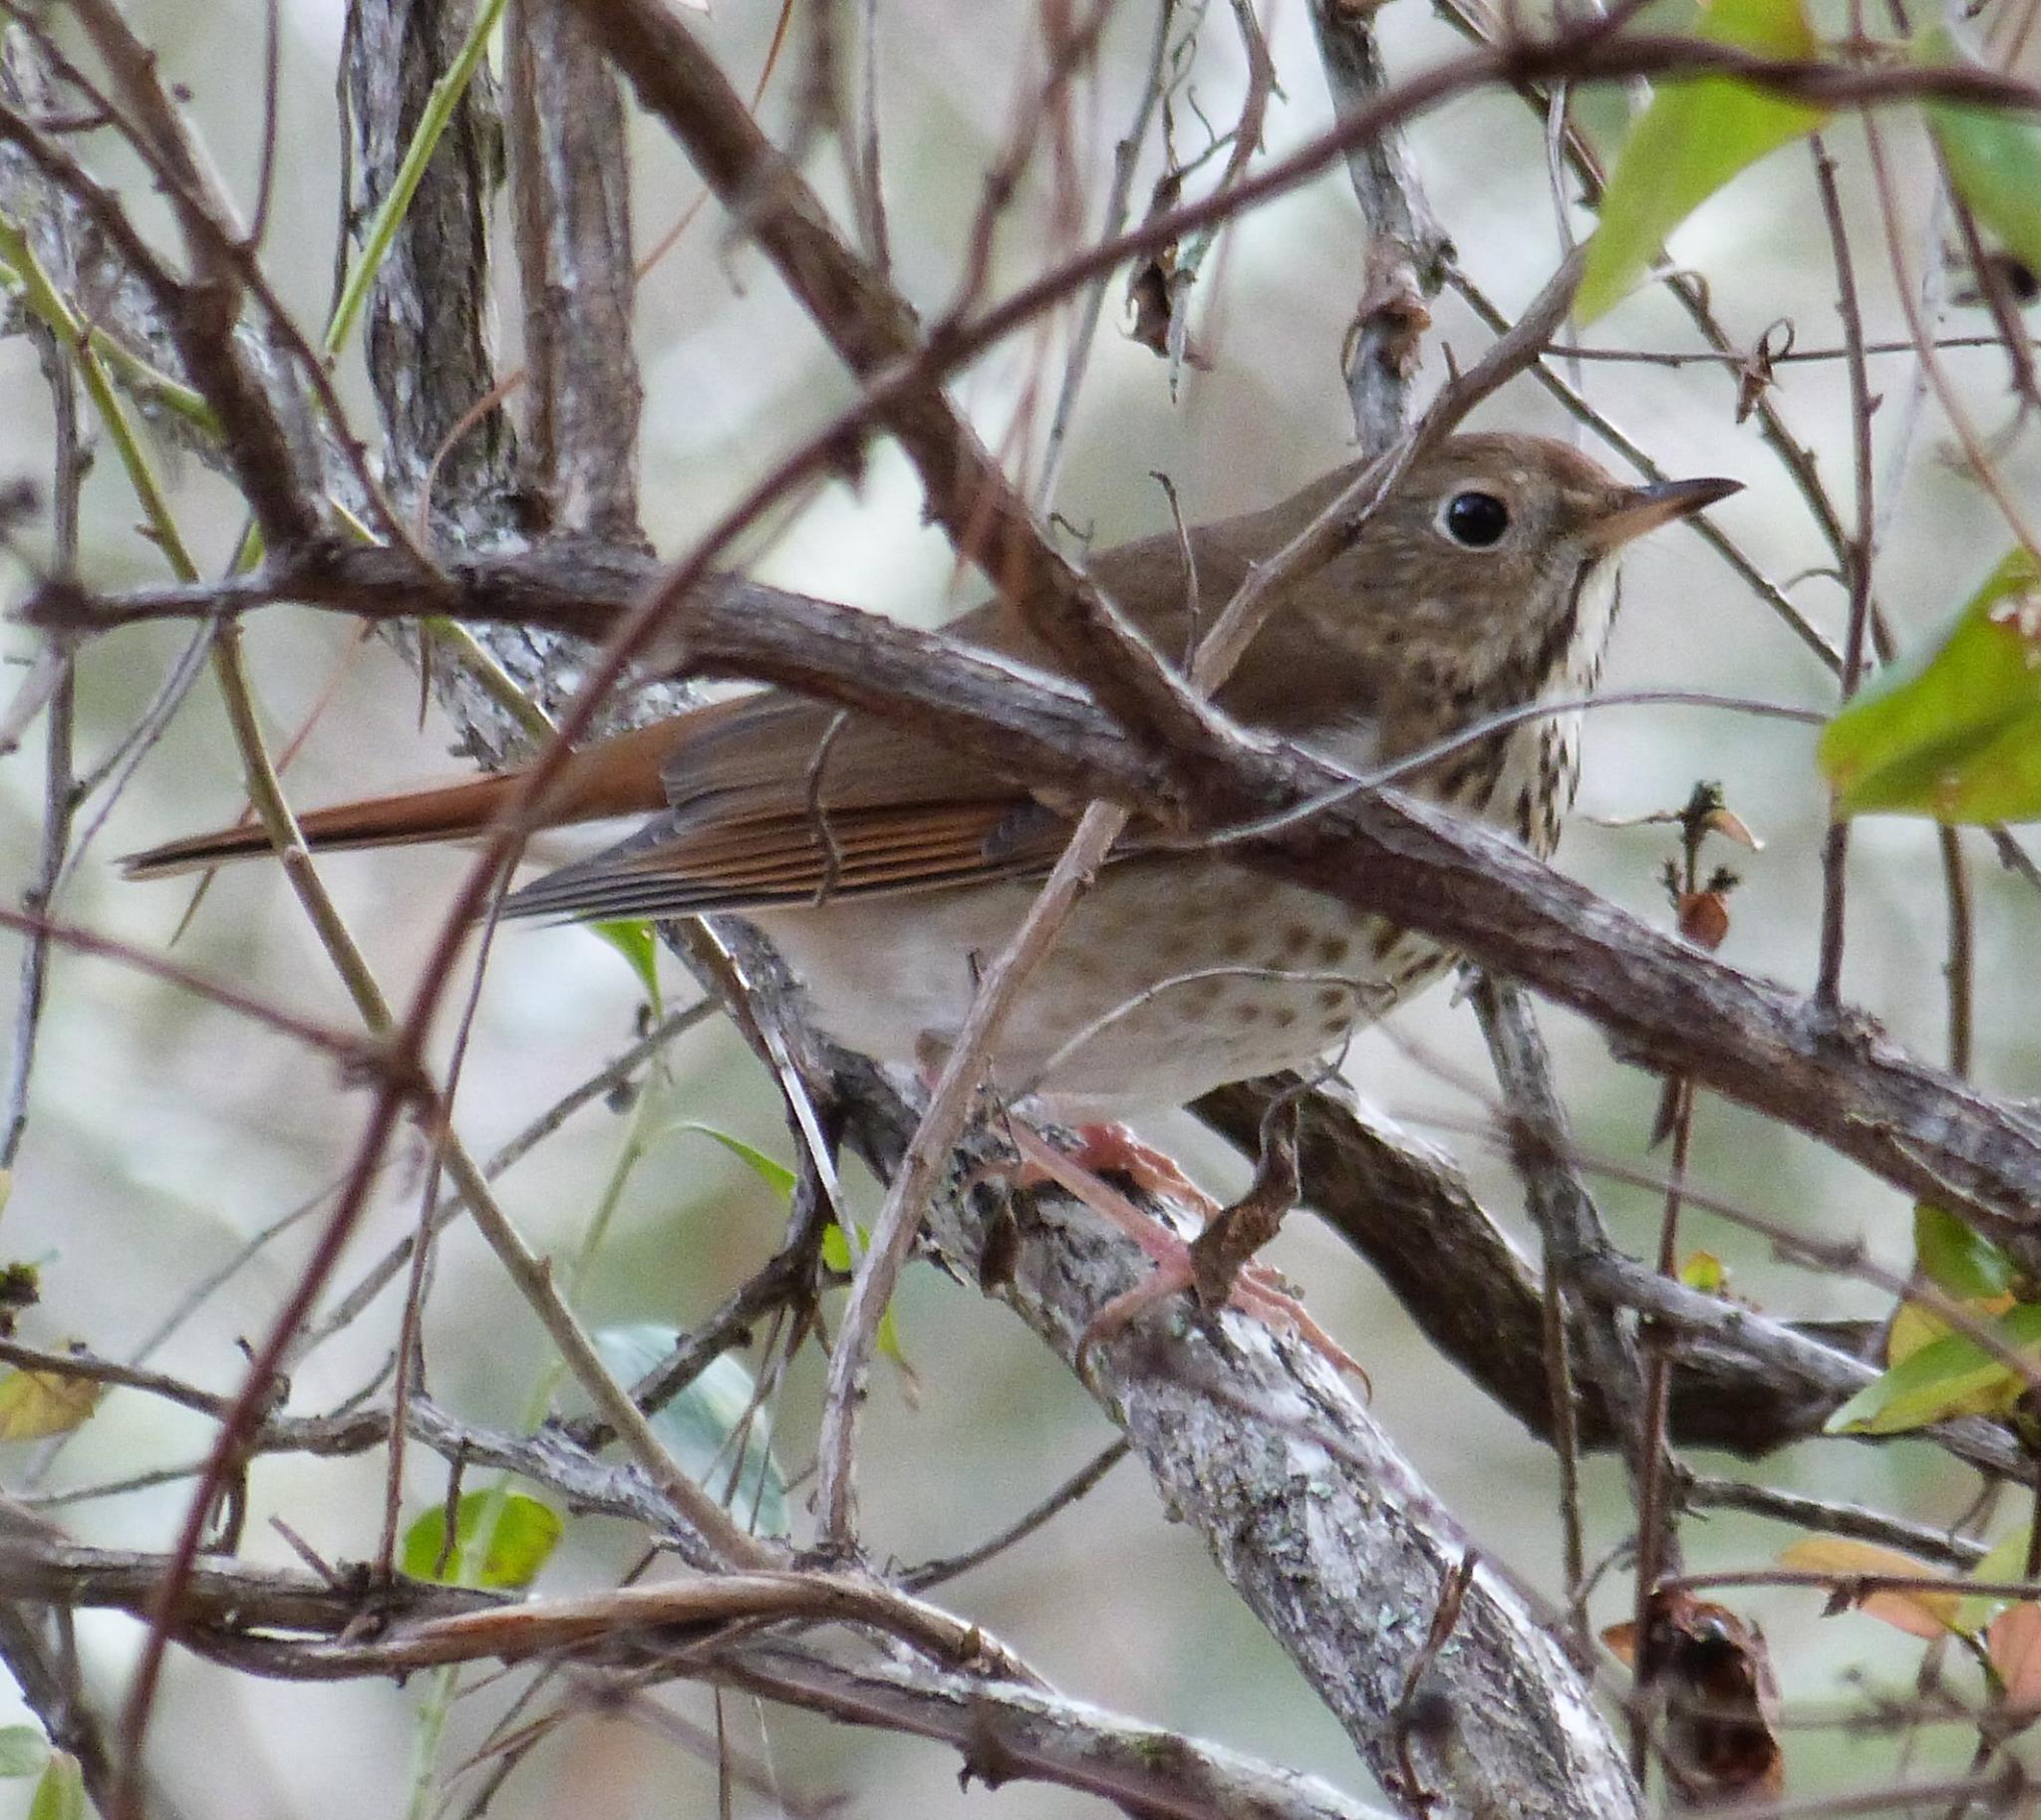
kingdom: Animalia
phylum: Chordata
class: Aves
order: Passeriformes
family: Turdidae
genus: Catharus
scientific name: Catharus guttatus
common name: Hermit thrush
